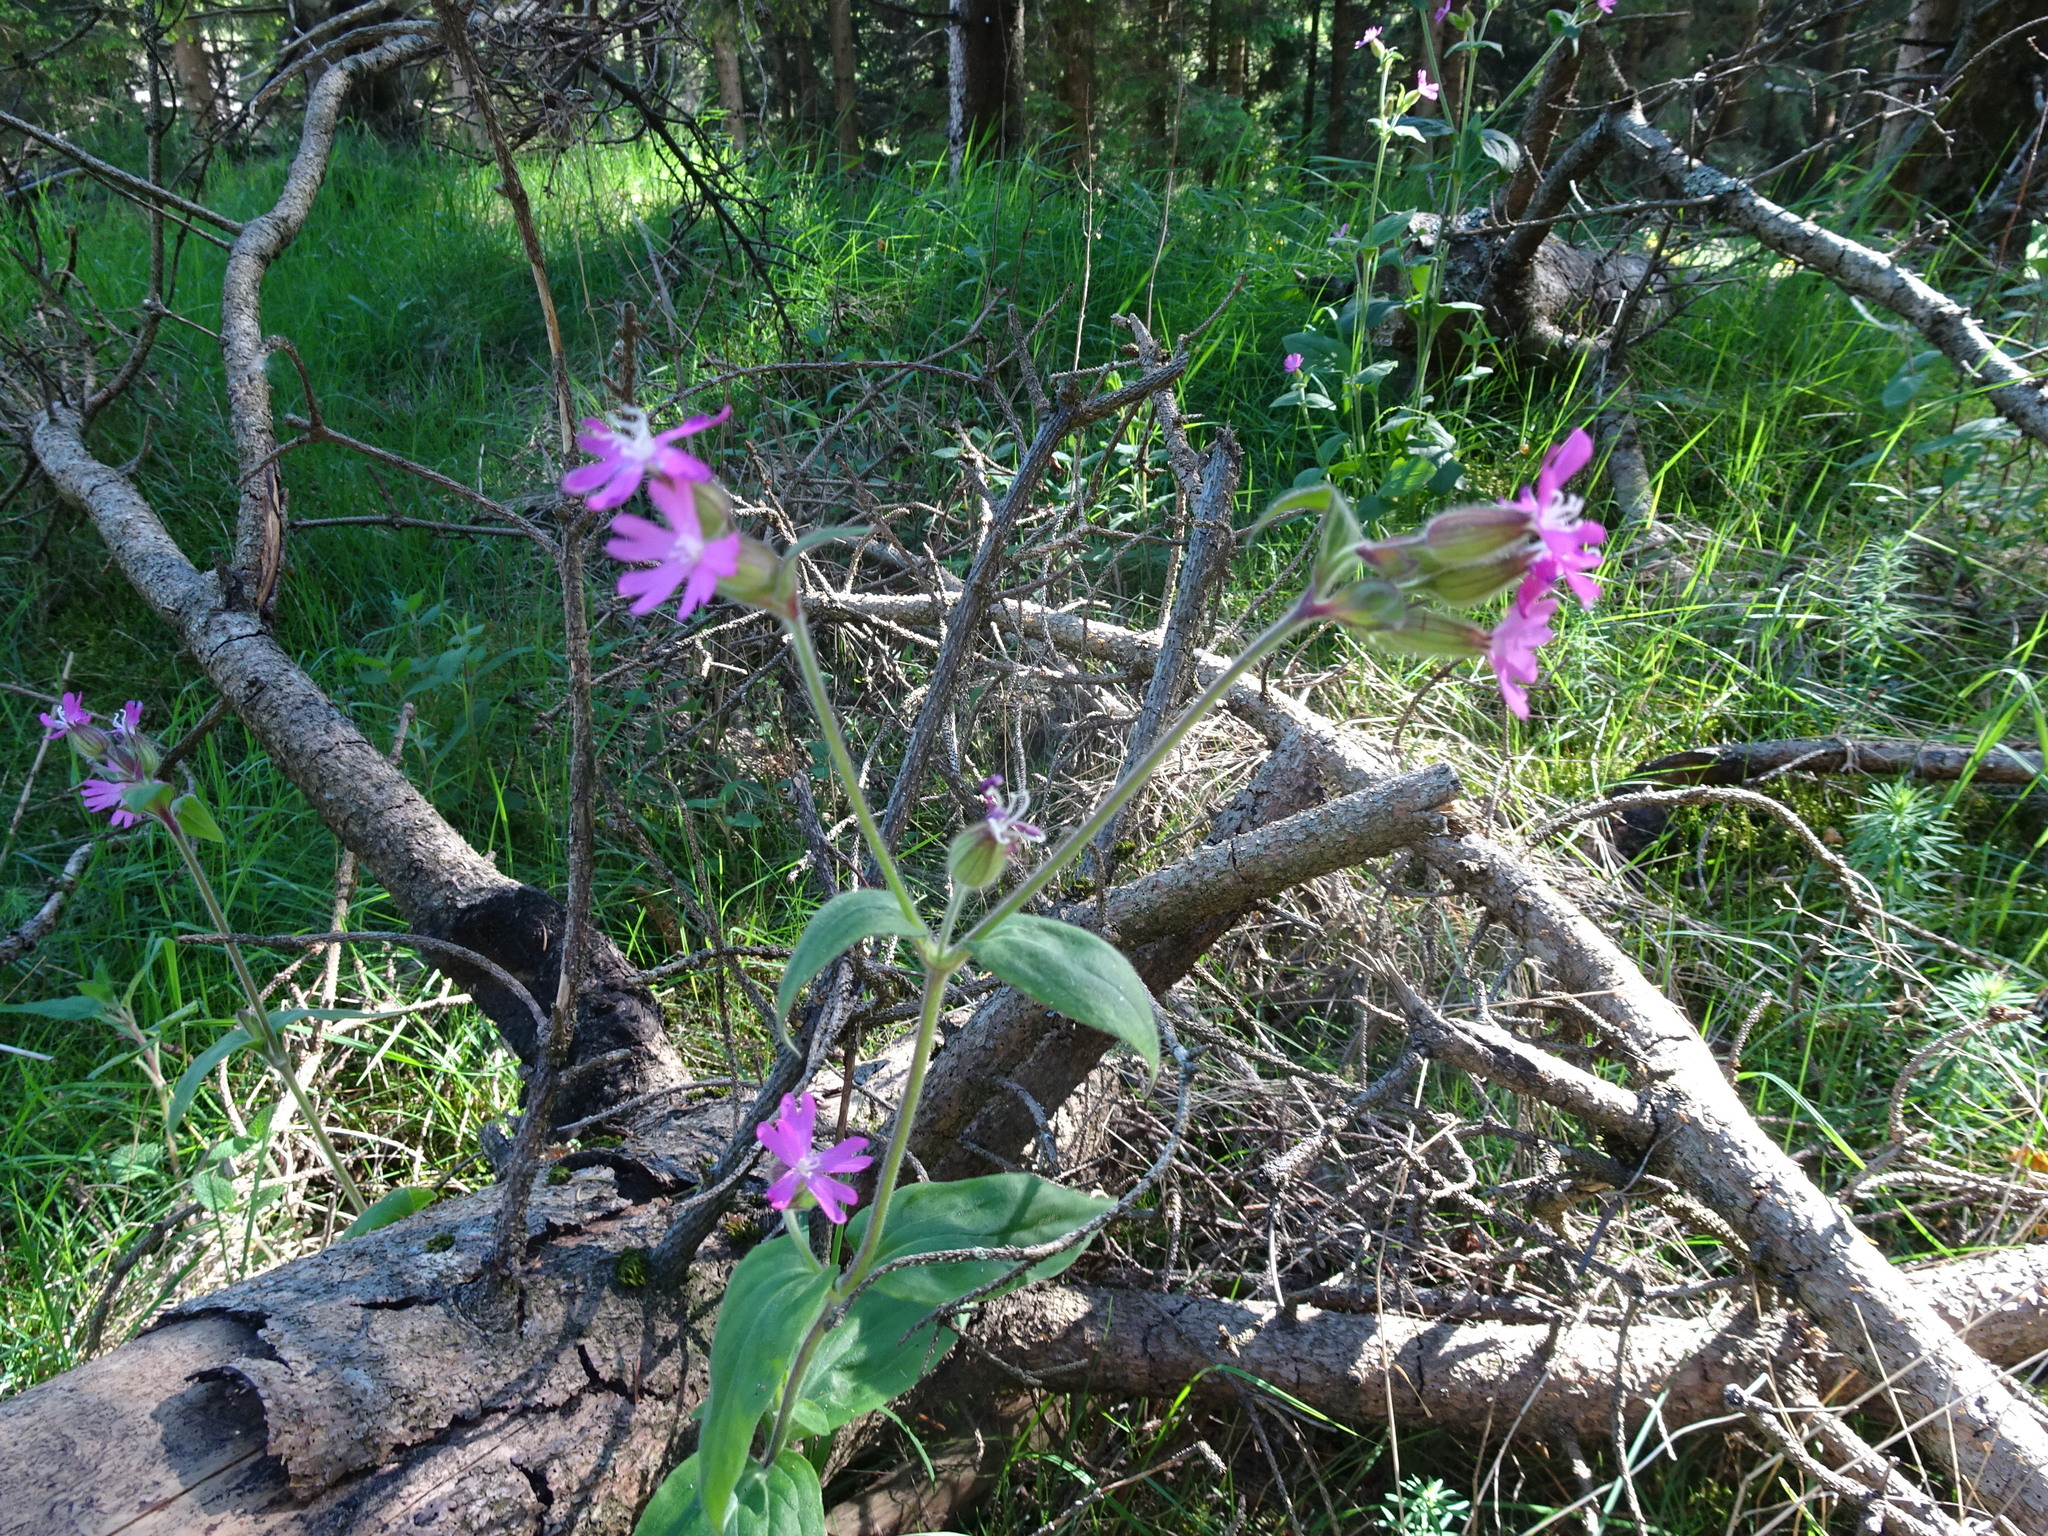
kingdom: Plantae
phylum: Tracheophyta
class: Magnoliopsida
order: Caryophyllales
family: Caryophyllaceae
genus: Silene
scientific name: Silene dioica
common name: Red campion
